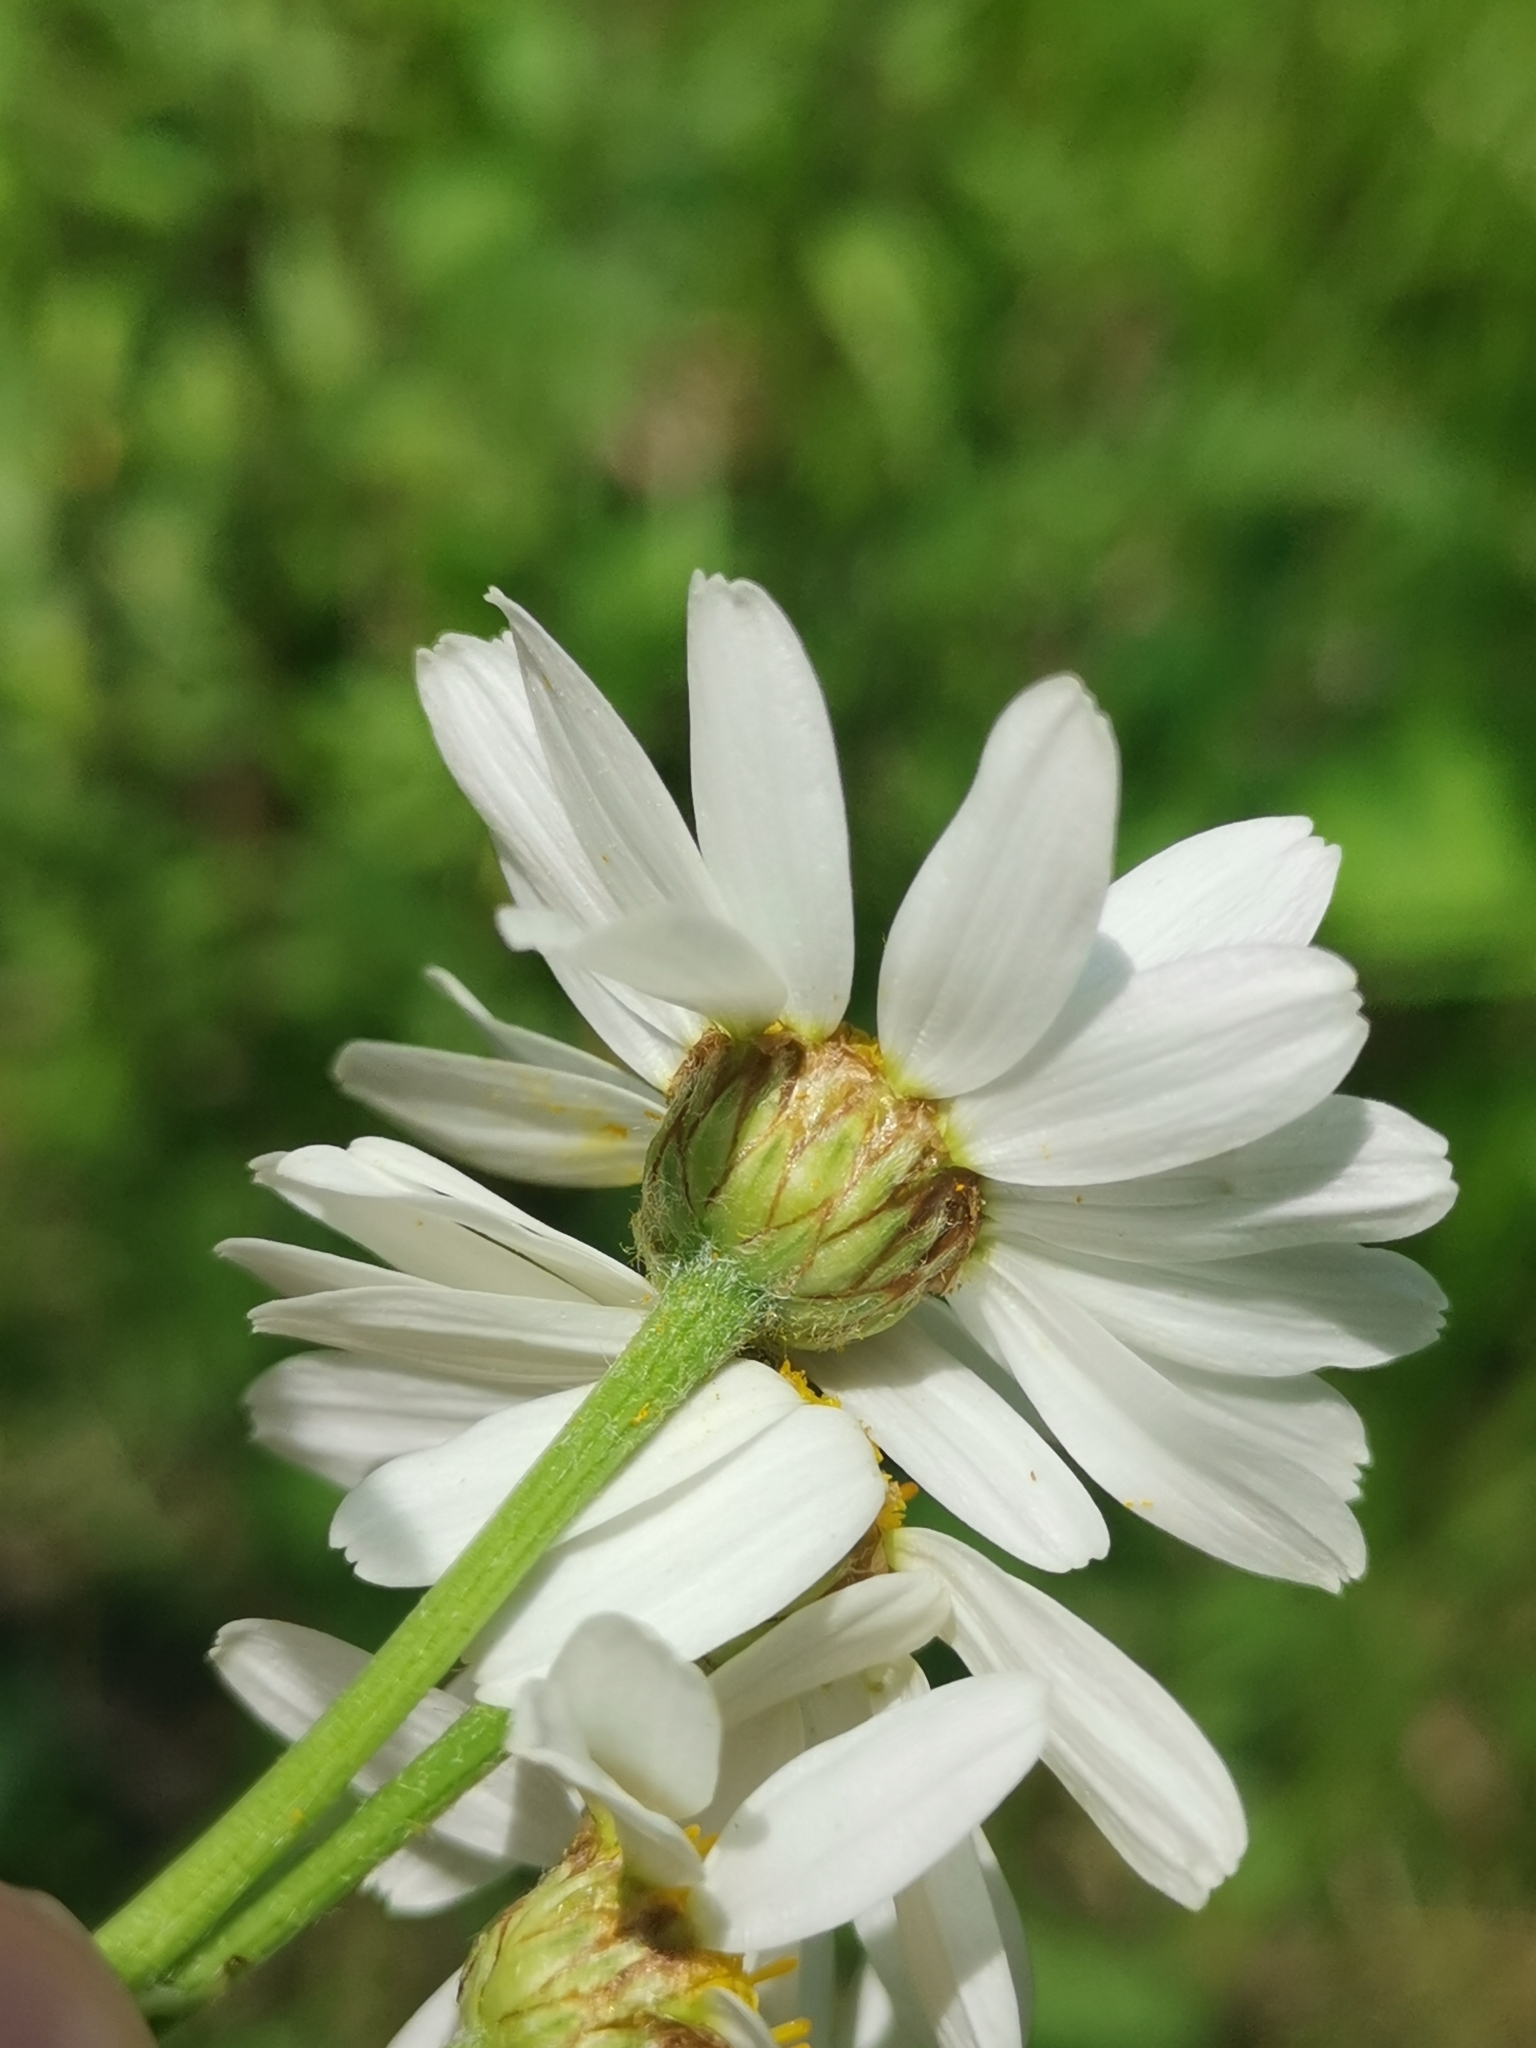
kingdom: Plantae
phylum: Tracheophyta
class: Magnoliopsida
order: Asterales
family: Asteraceae
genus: Tanacetum
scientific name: Tanacetum corymbosum
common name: Scentless feverfew
